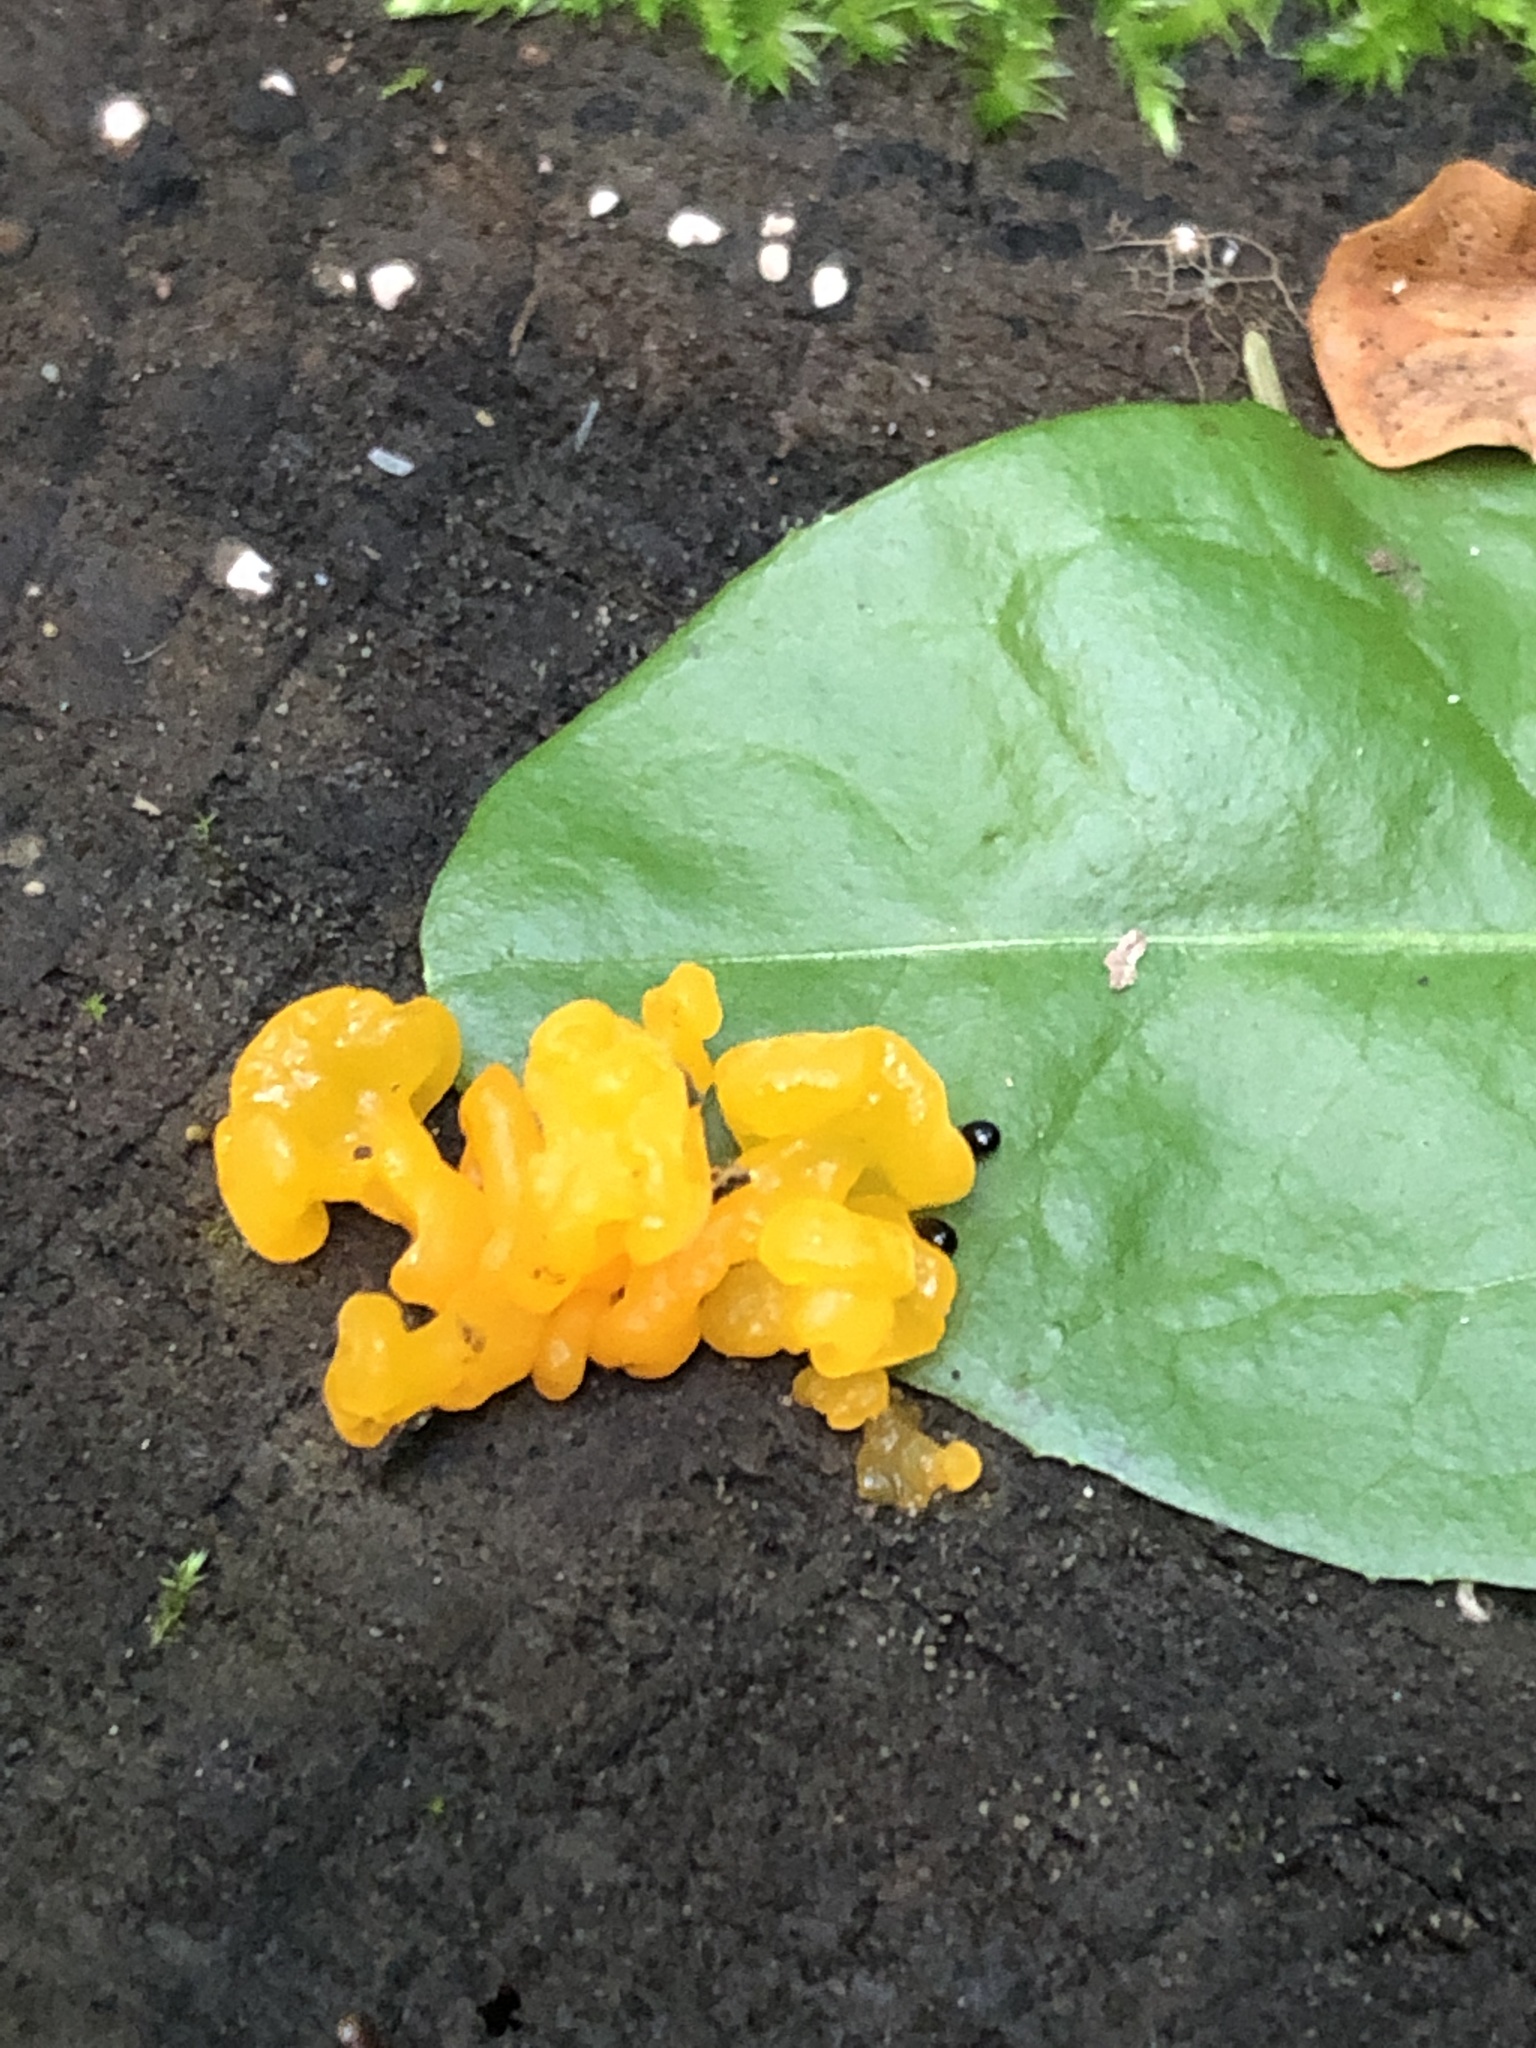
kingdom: Fungi
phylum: Basidiomycota
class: Dacrymycetes
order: Dacrymycetales
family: Dacrymycetaceae
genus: Dacrymyces
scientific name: Dacrymyces chrysospermus
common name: Orange jelly spot
